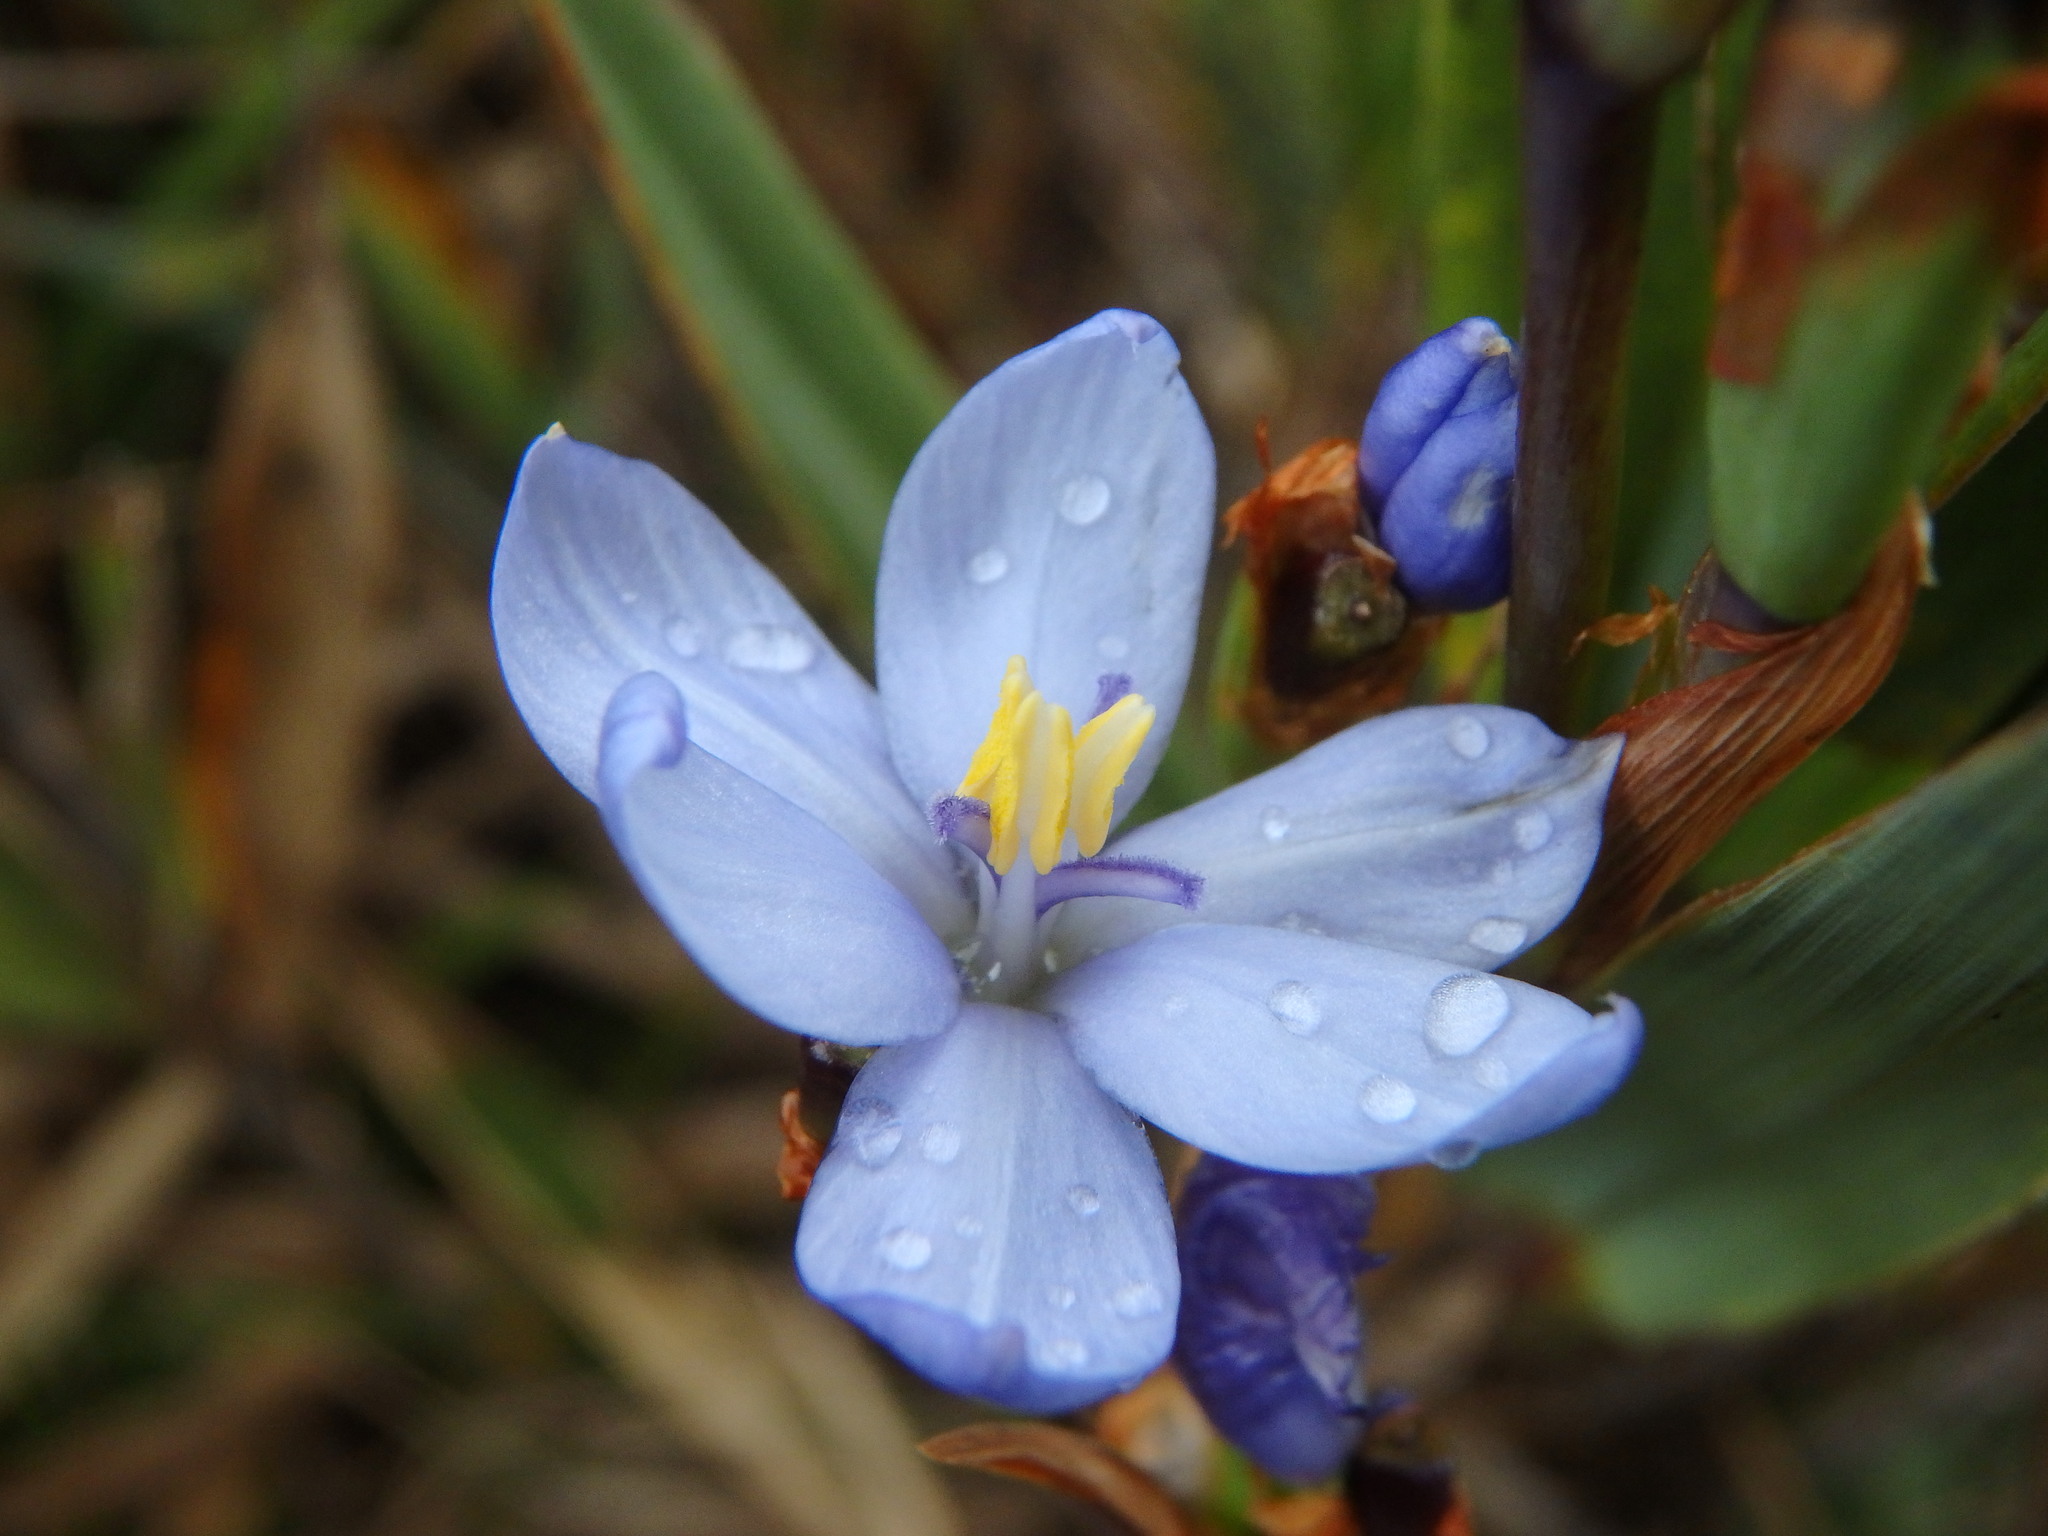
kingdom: Plantae
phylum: Tracheophyta
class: Liliopsida
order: Asparagales
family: Iridaceae
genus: Orthrosanthus
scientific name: Orthrosanthus chimboracensis
